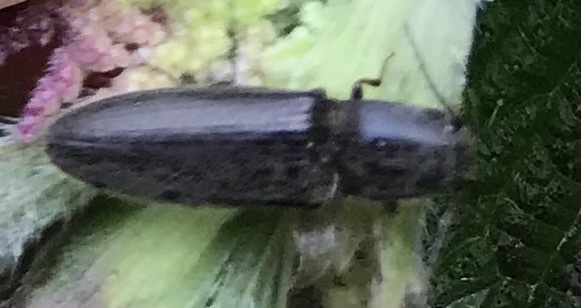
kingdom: Animalia
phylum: Arthropoda
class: Insecta
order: Coleoptera
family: Elateridae
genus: Athous
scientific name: Athous haemorrhoidalis
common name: Red-brown click beetle
